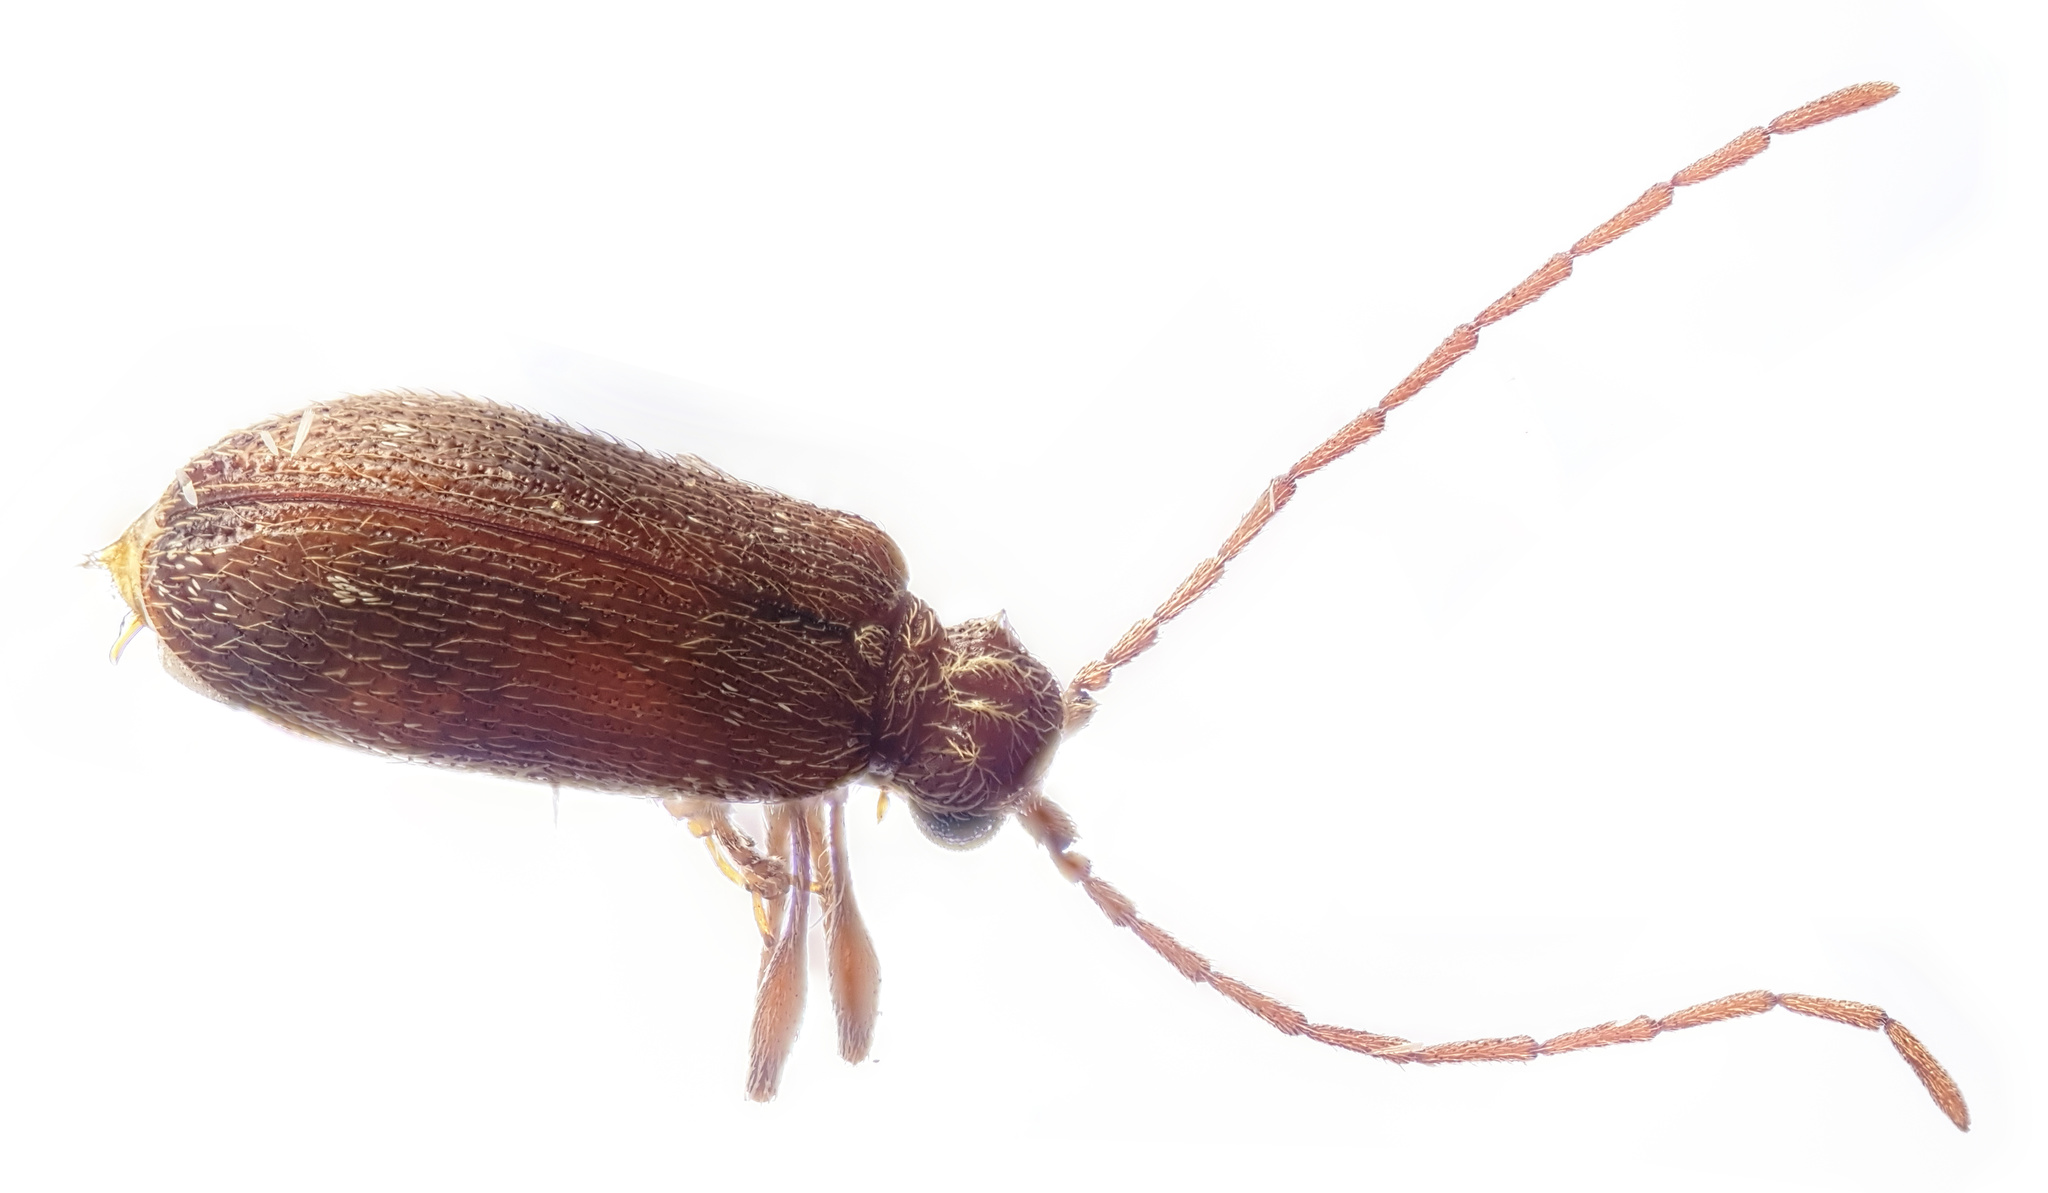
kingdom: Animalia
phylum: Arthropoda
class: Insecta
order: Coleoptera
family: Ptinidae
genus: Ptinus
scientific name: Ptinus fur
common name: White-marked spider beetle
